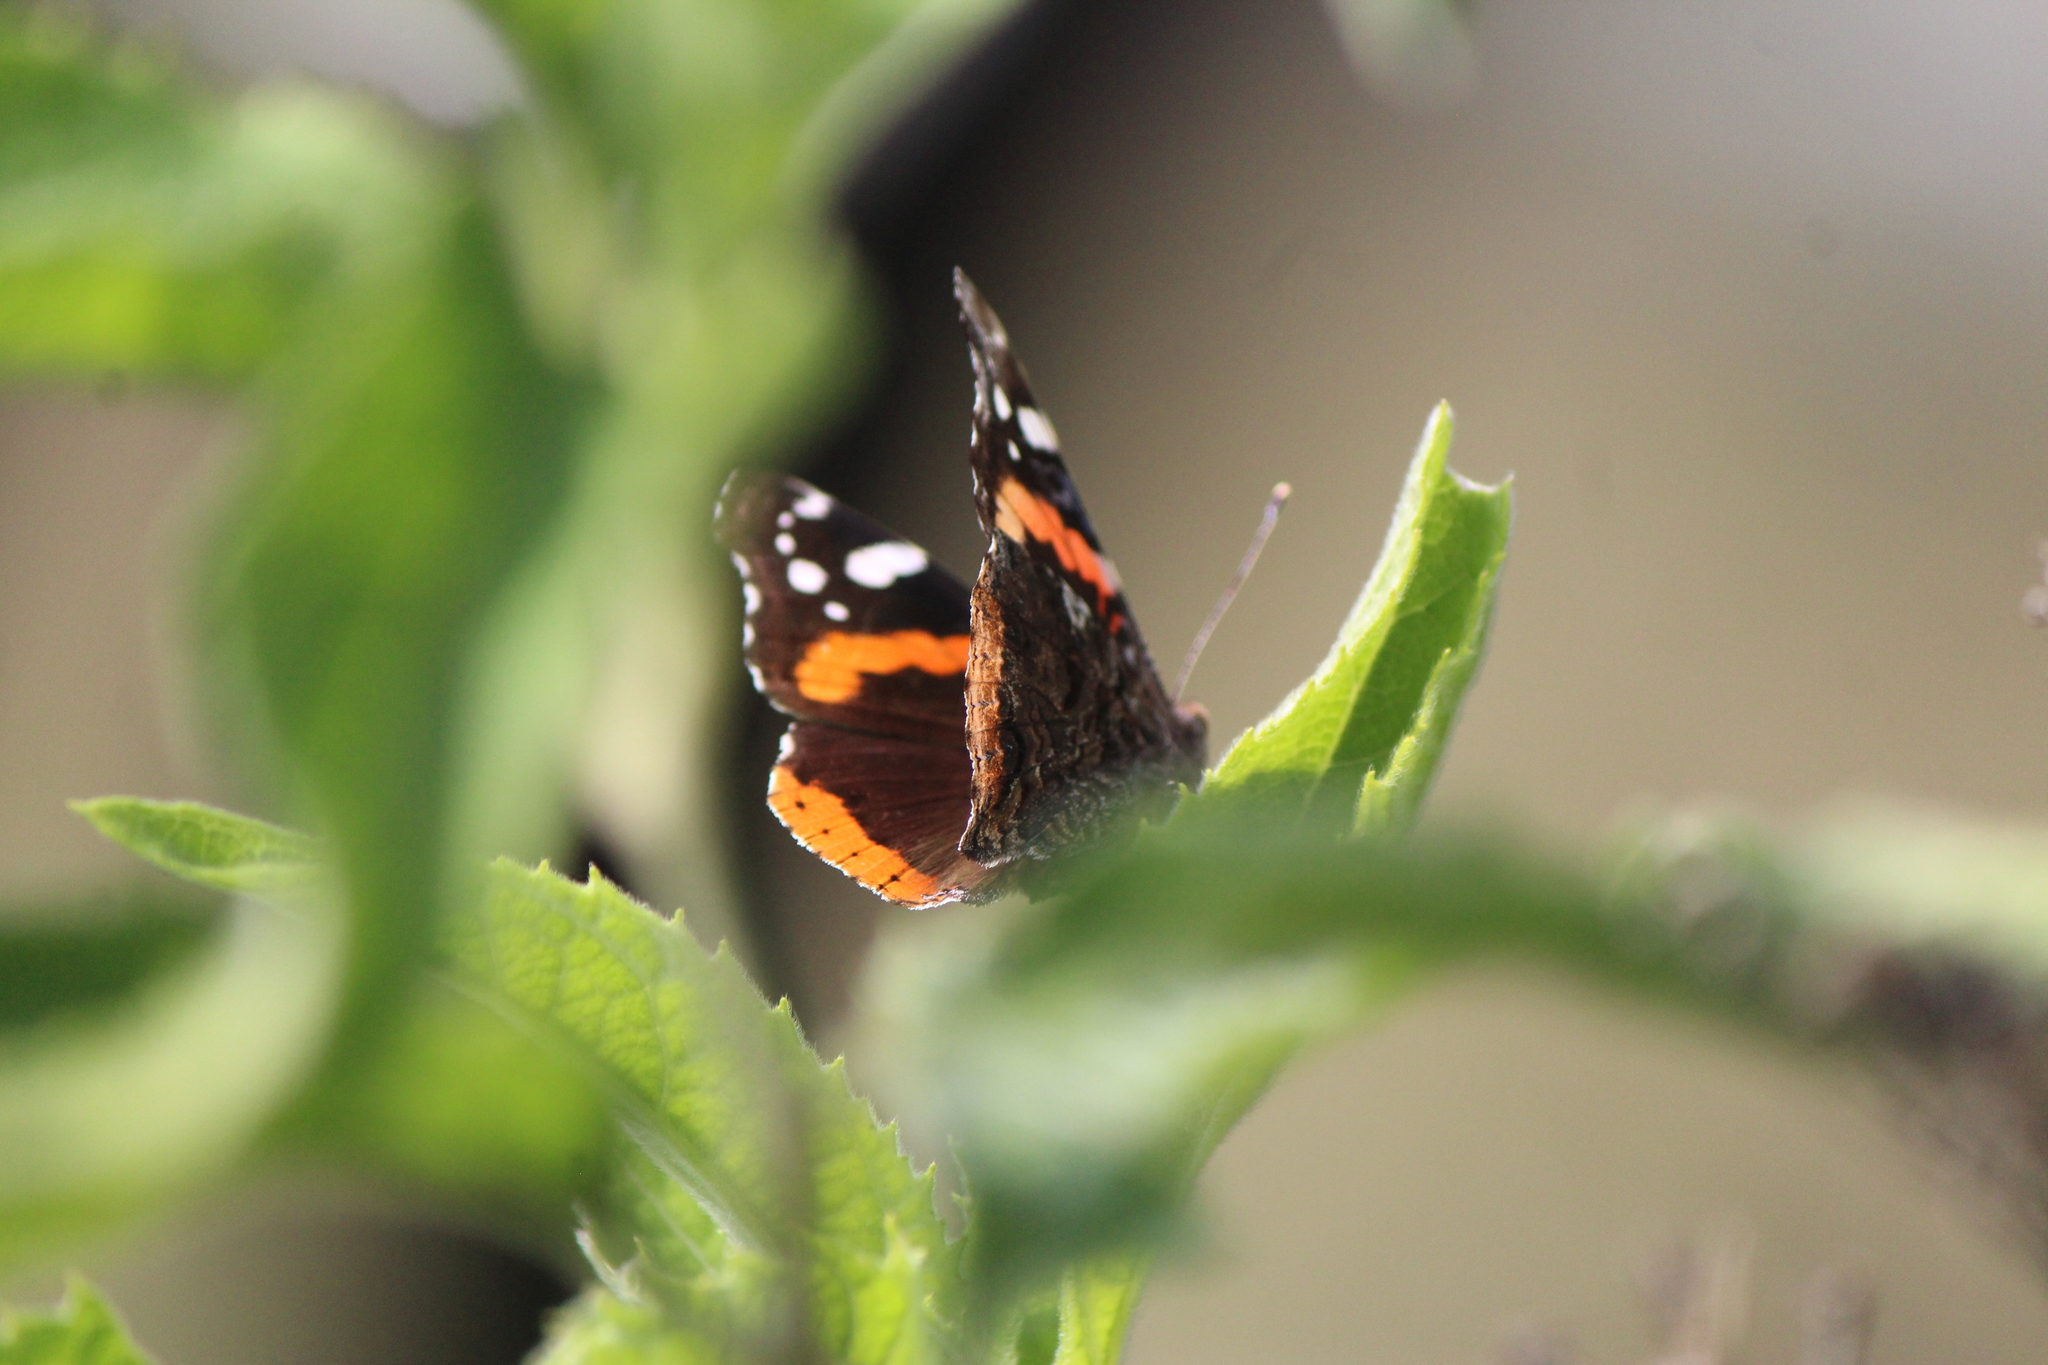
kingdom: Animalia
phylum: Arthropoda
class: Insecta
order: Lepidoptera
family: Nymphalidae
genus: Vanessa
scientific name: Vanessa atalanta
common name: Red admiral
